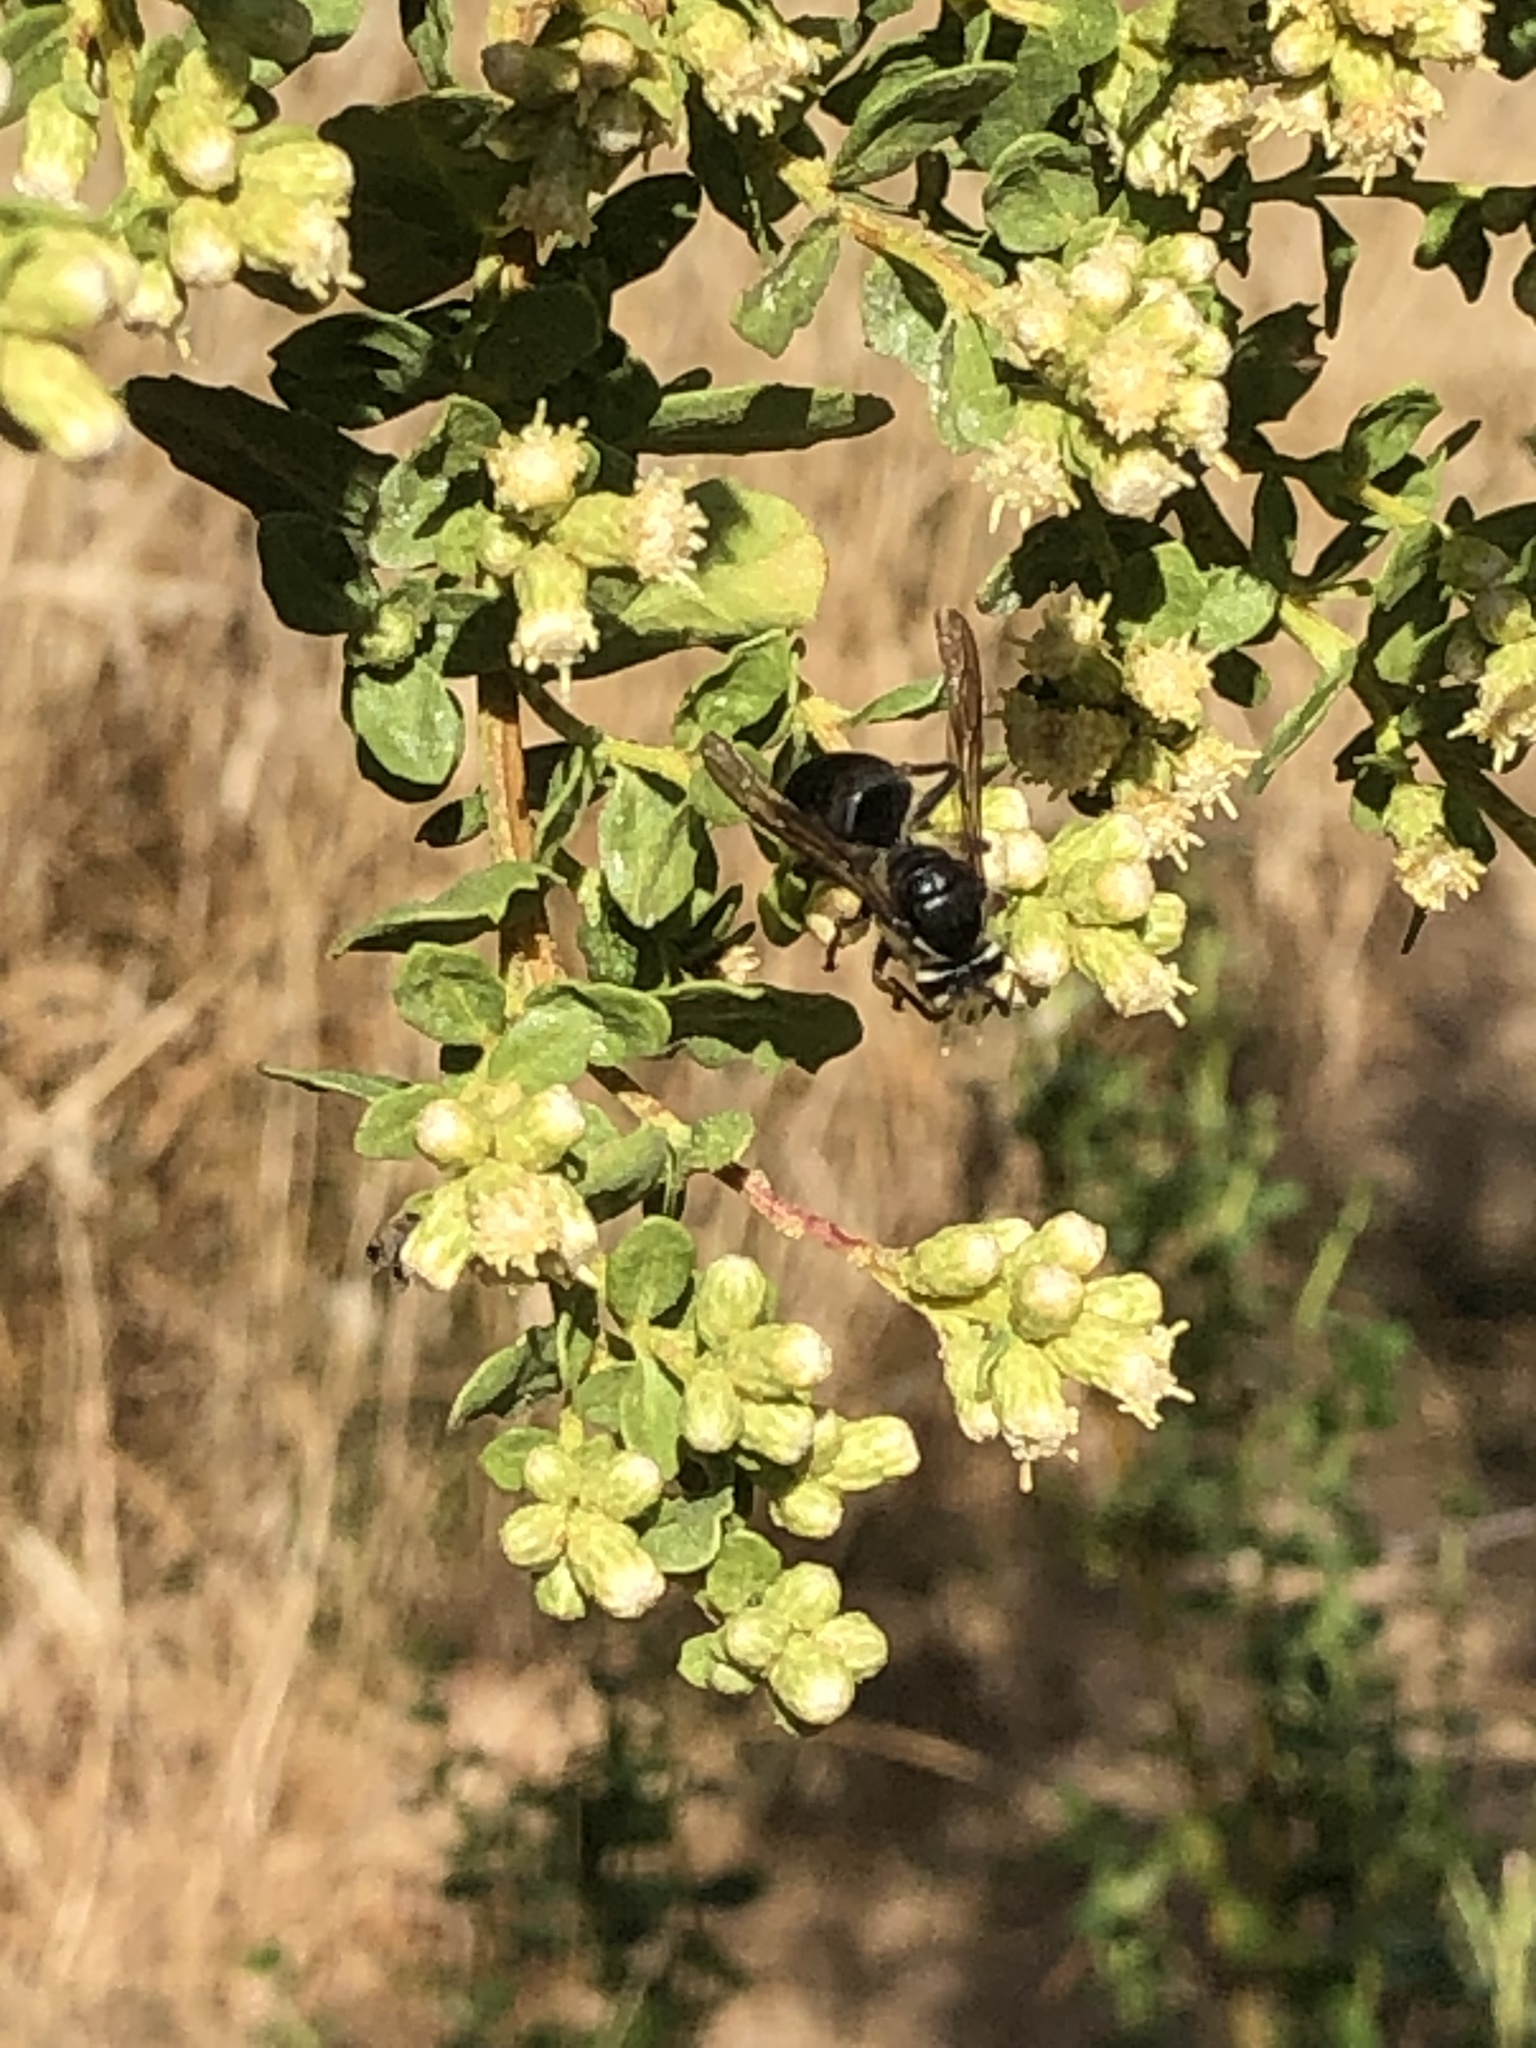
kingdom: Animalia
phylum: Arthropoda
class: Insecta
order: Hymenoptera
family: Vespidae
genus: Dolichovespula
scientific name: Dolichovespula maculata
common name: Bald-faced hornet
